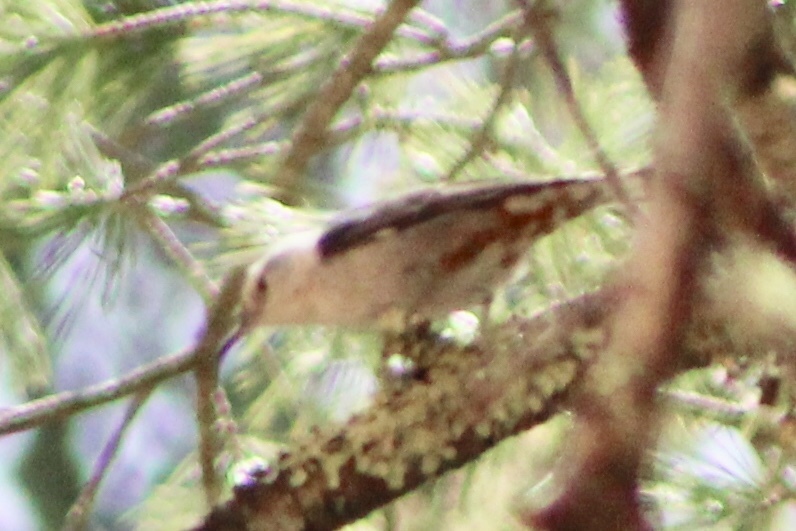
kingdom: Animalia
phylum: Chordata
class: Aves
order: Passeriformes
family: Sittidae
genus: Sitta
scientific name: Sitta carolinensis
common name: White-breasted nuthatch
